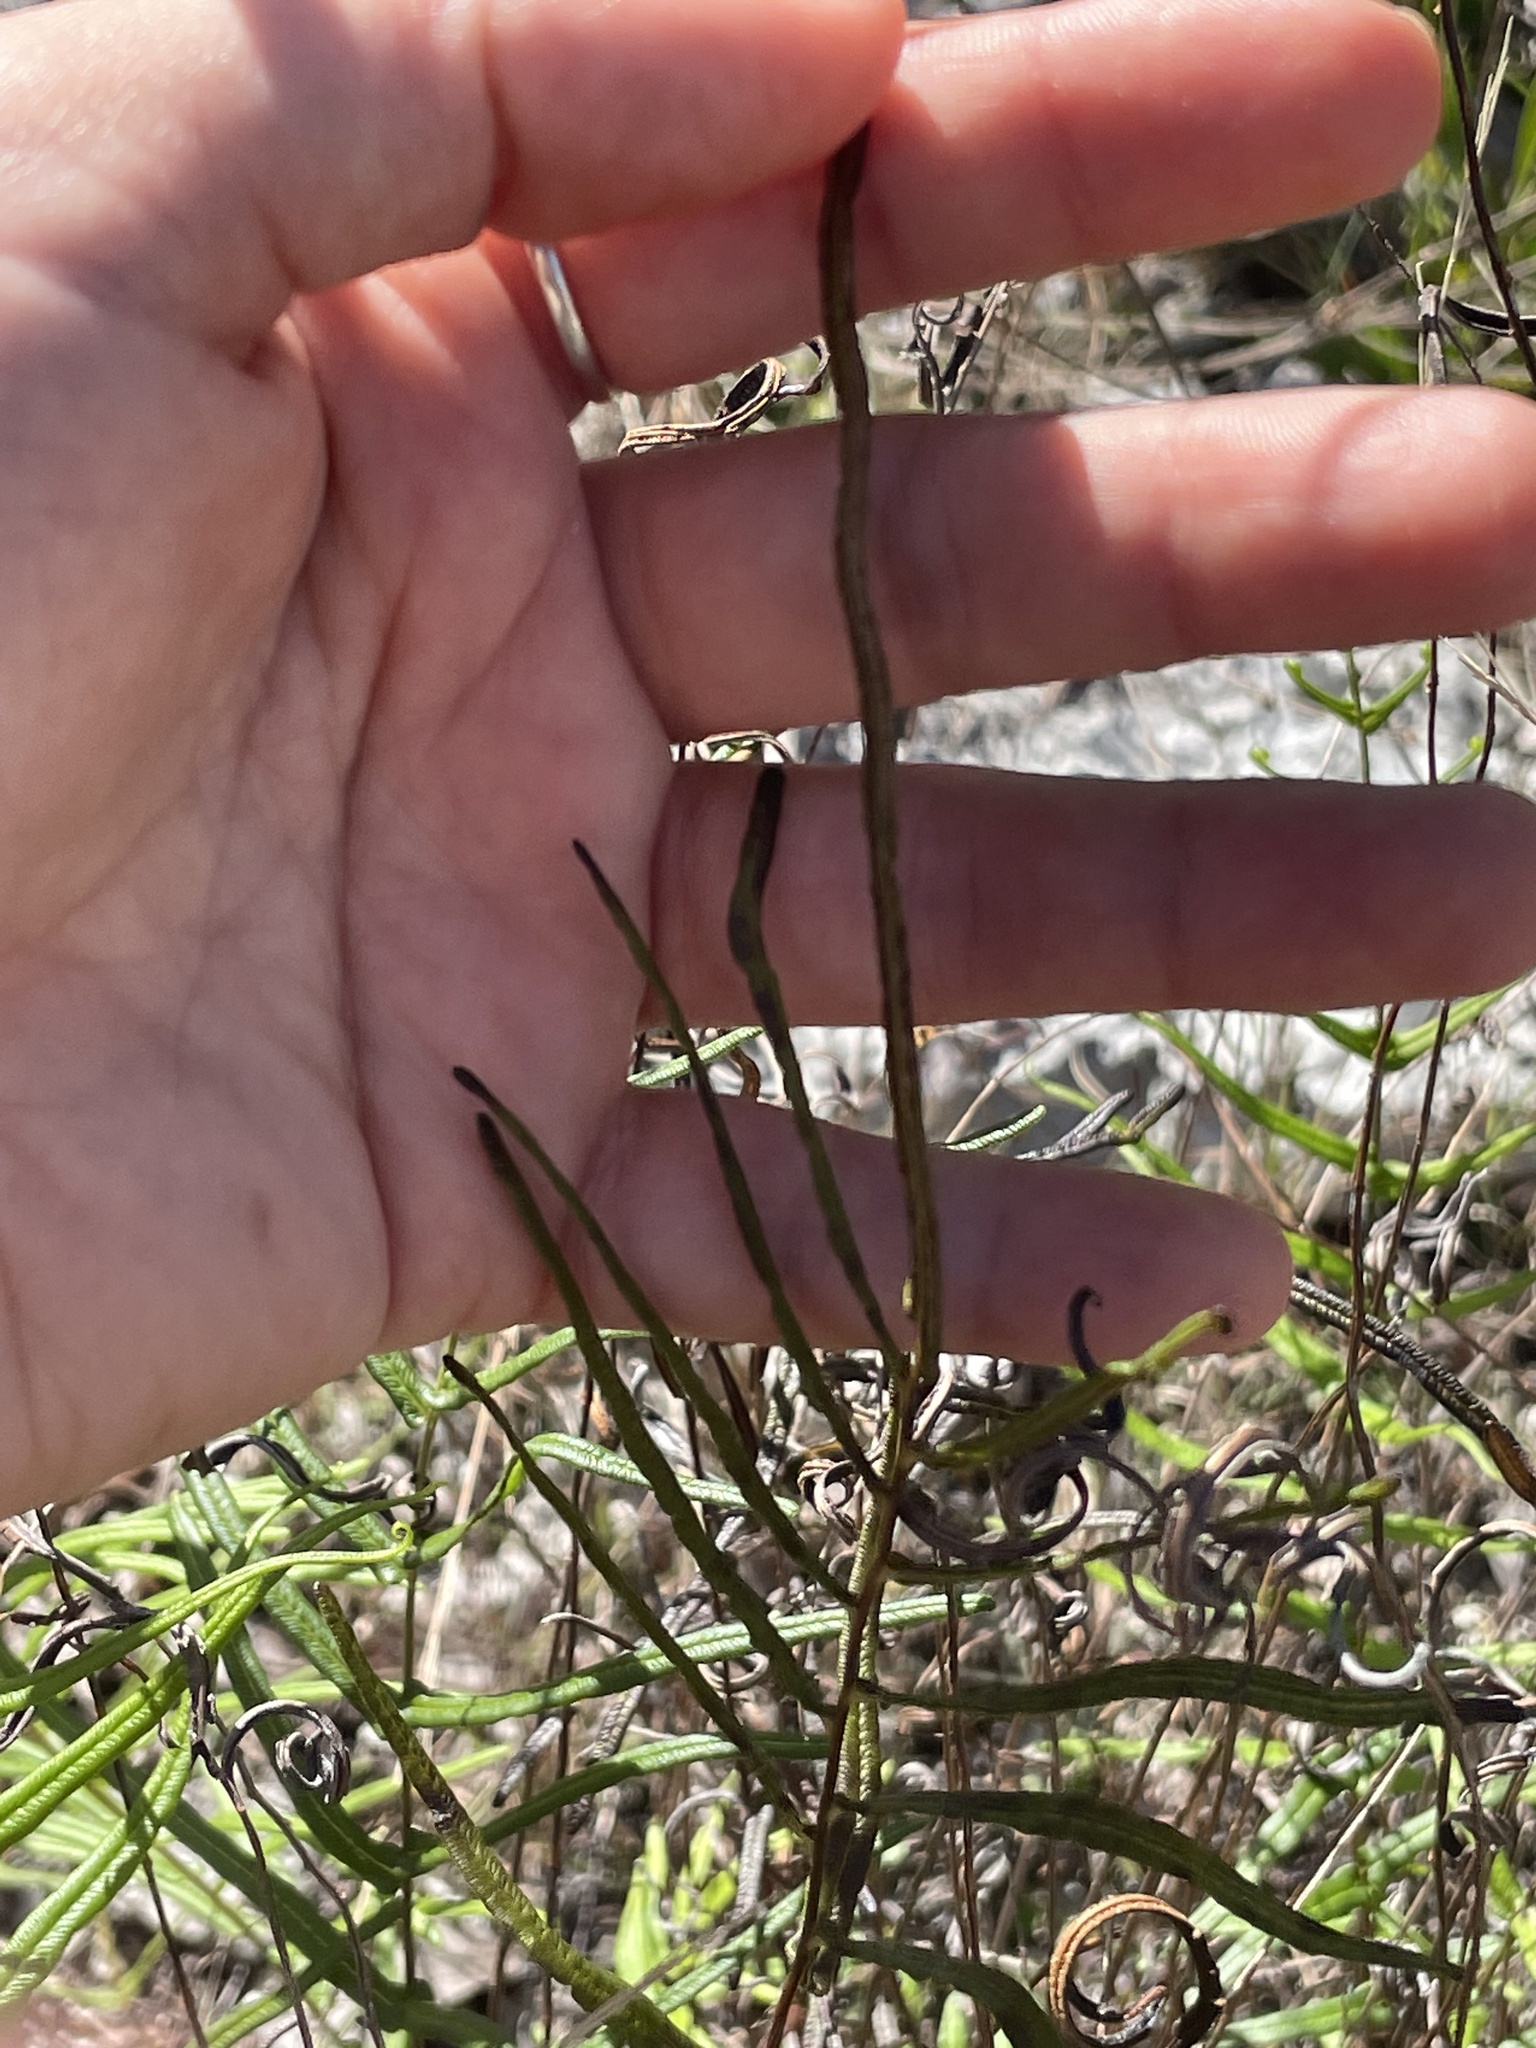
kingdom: Plantae
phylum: Tracheophyta
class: Polypodiopsida
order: Polypodiales
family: Pteridaceae
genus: Pteris
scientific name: Pteris bahamensis
